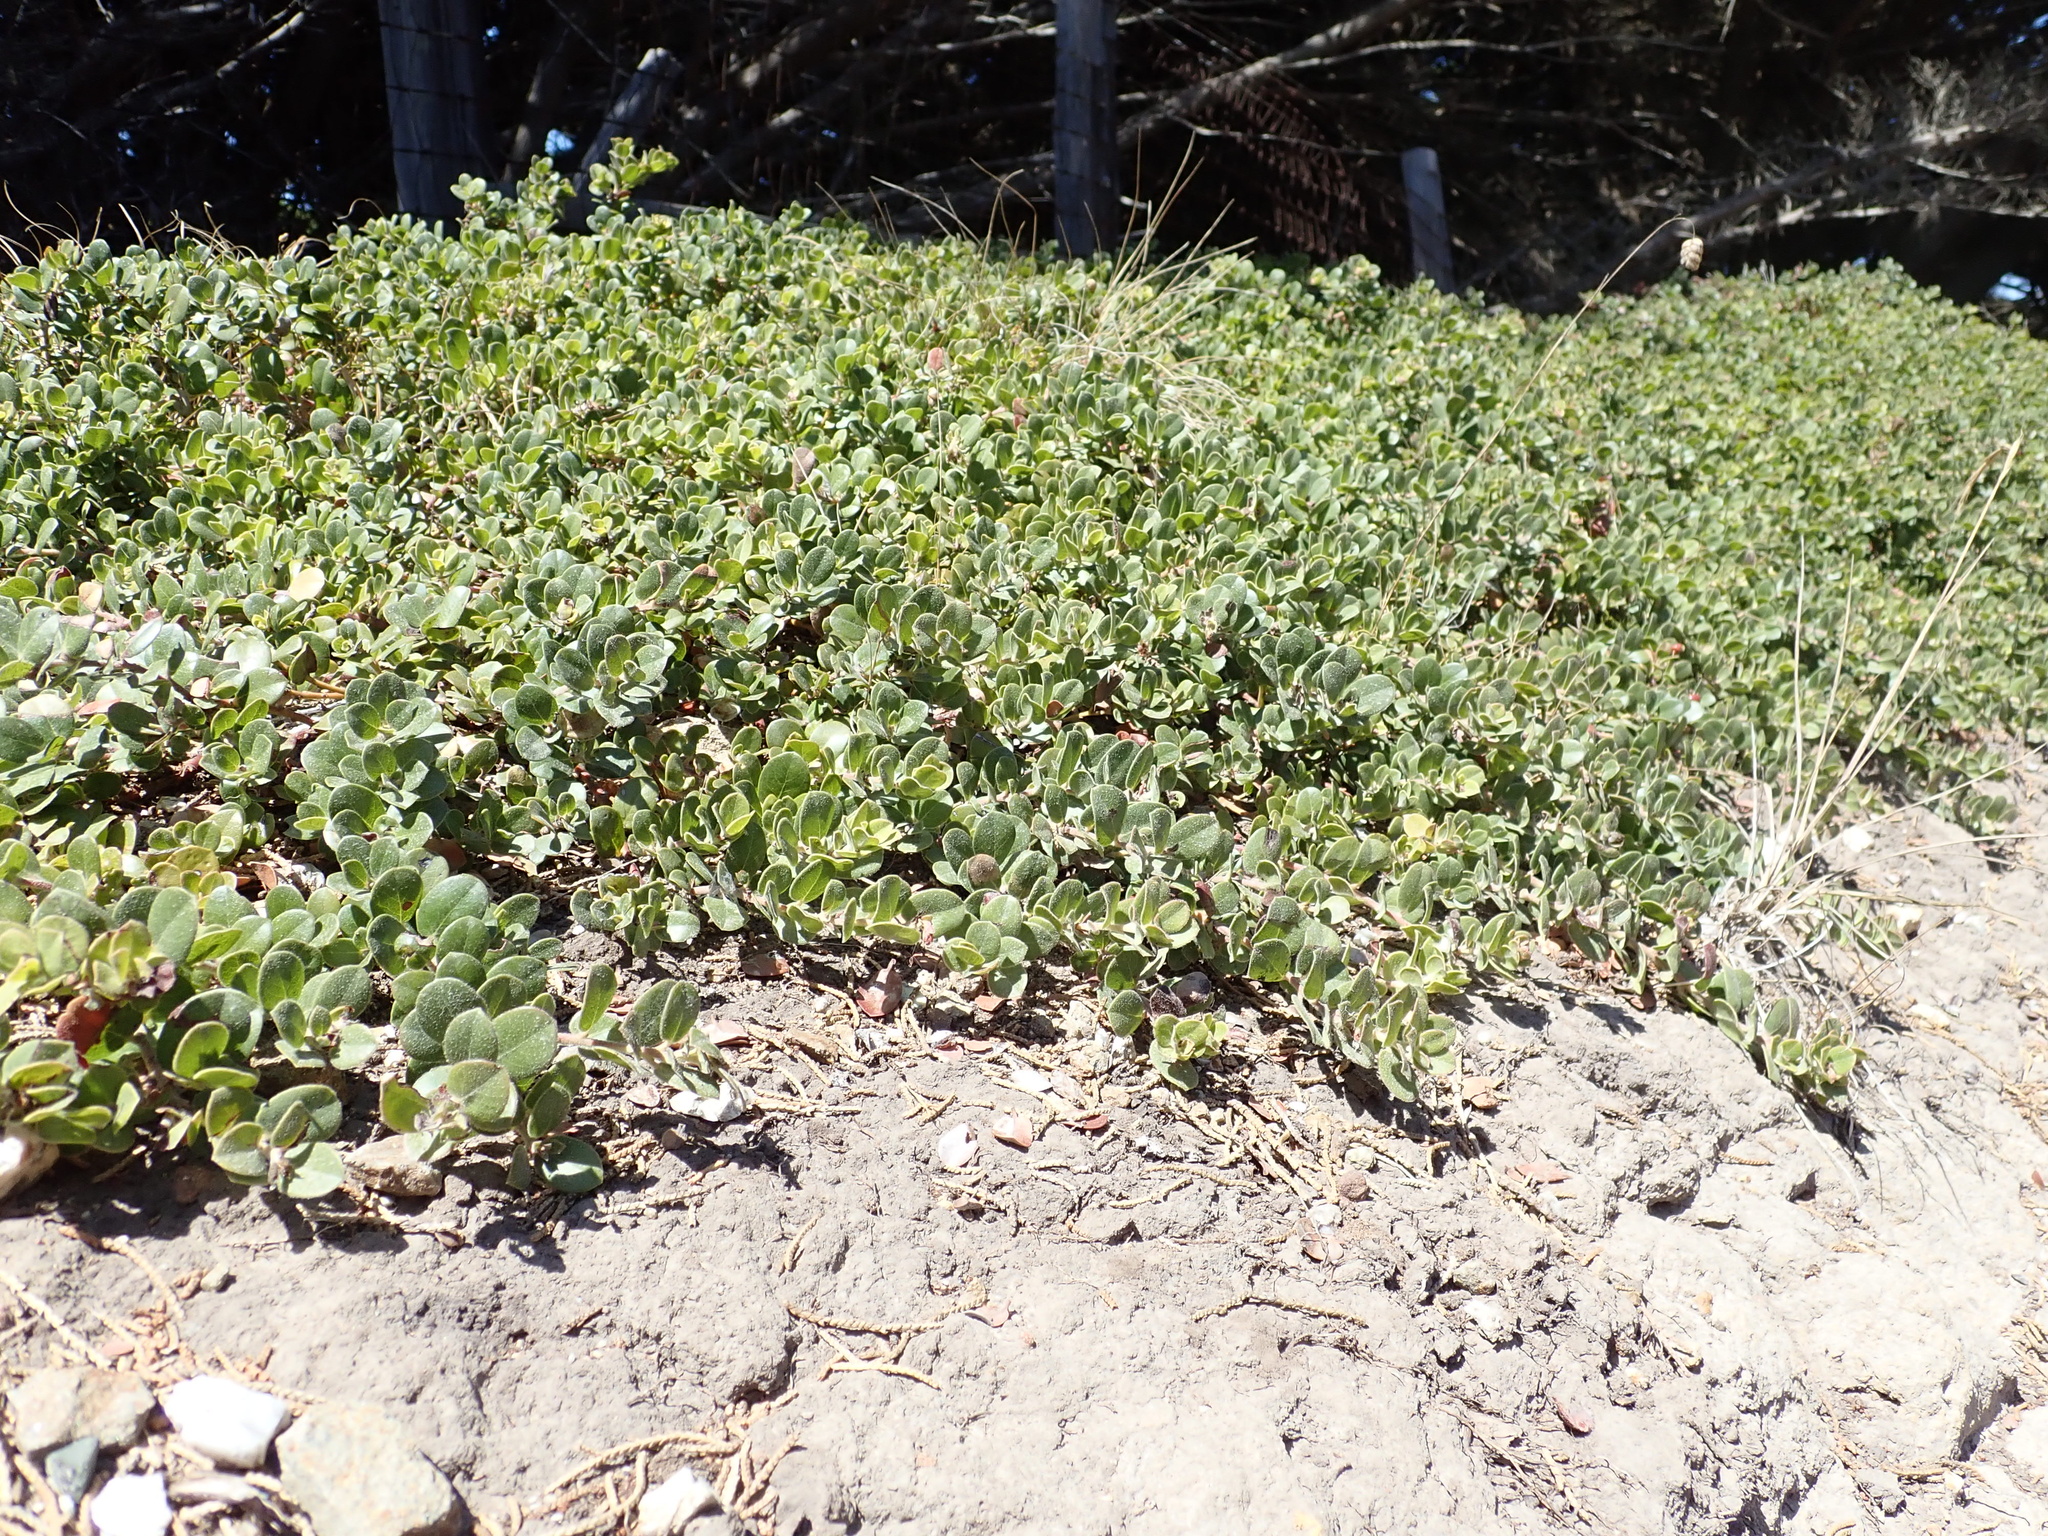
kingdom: Plantae
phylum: Tracheophyta
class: Magnoliopsida
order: Ericales
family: Ericaceae
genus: Arctostaphylos
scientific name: Arctostaphylos edmundsii
